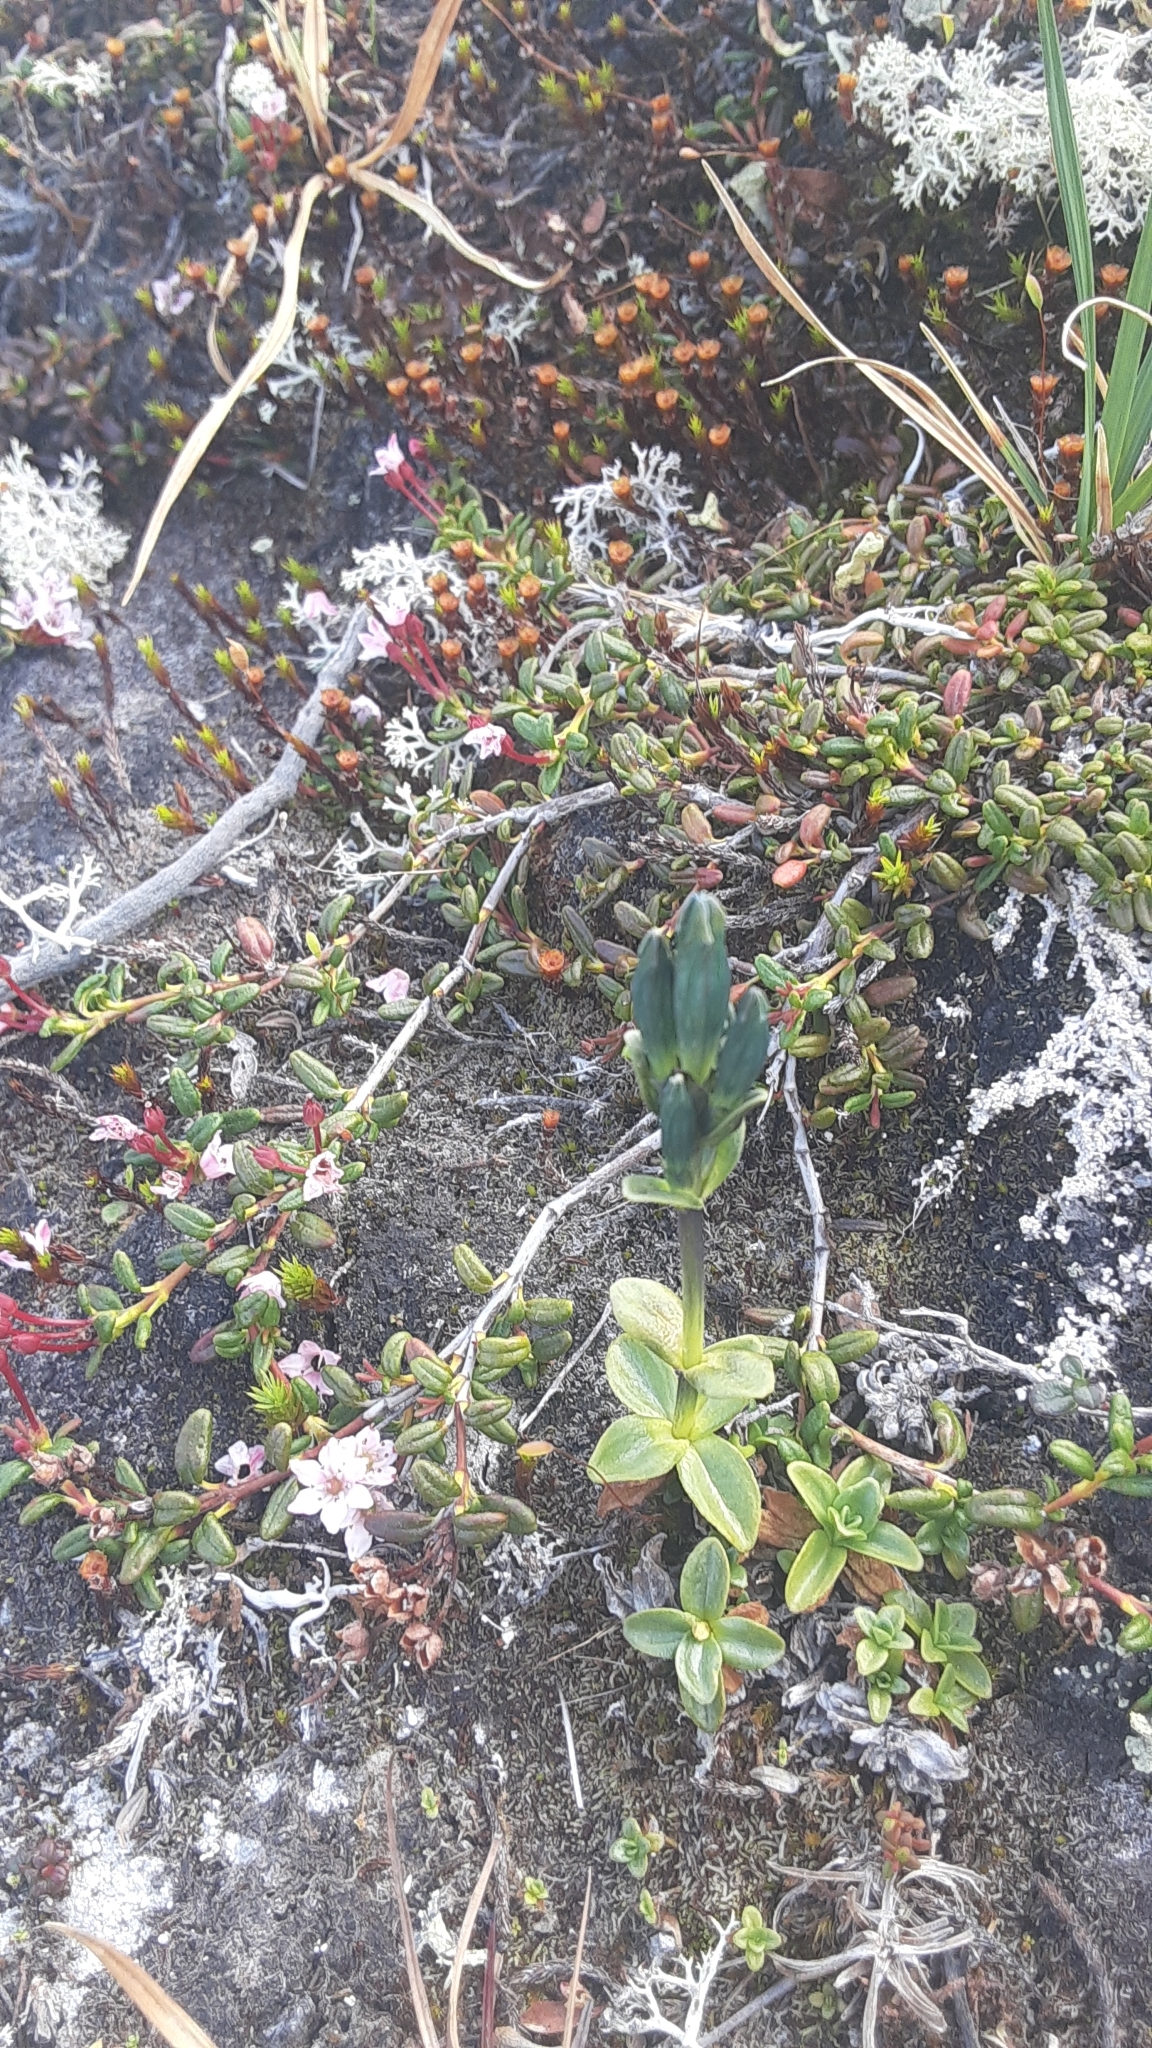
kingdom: Plantae
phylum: Tracheophyta
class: Magnoliopsida
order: Gentianales
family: Gentianaceae
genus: Gentiana
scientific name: Gentiana glauca
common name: Alpine gentian
